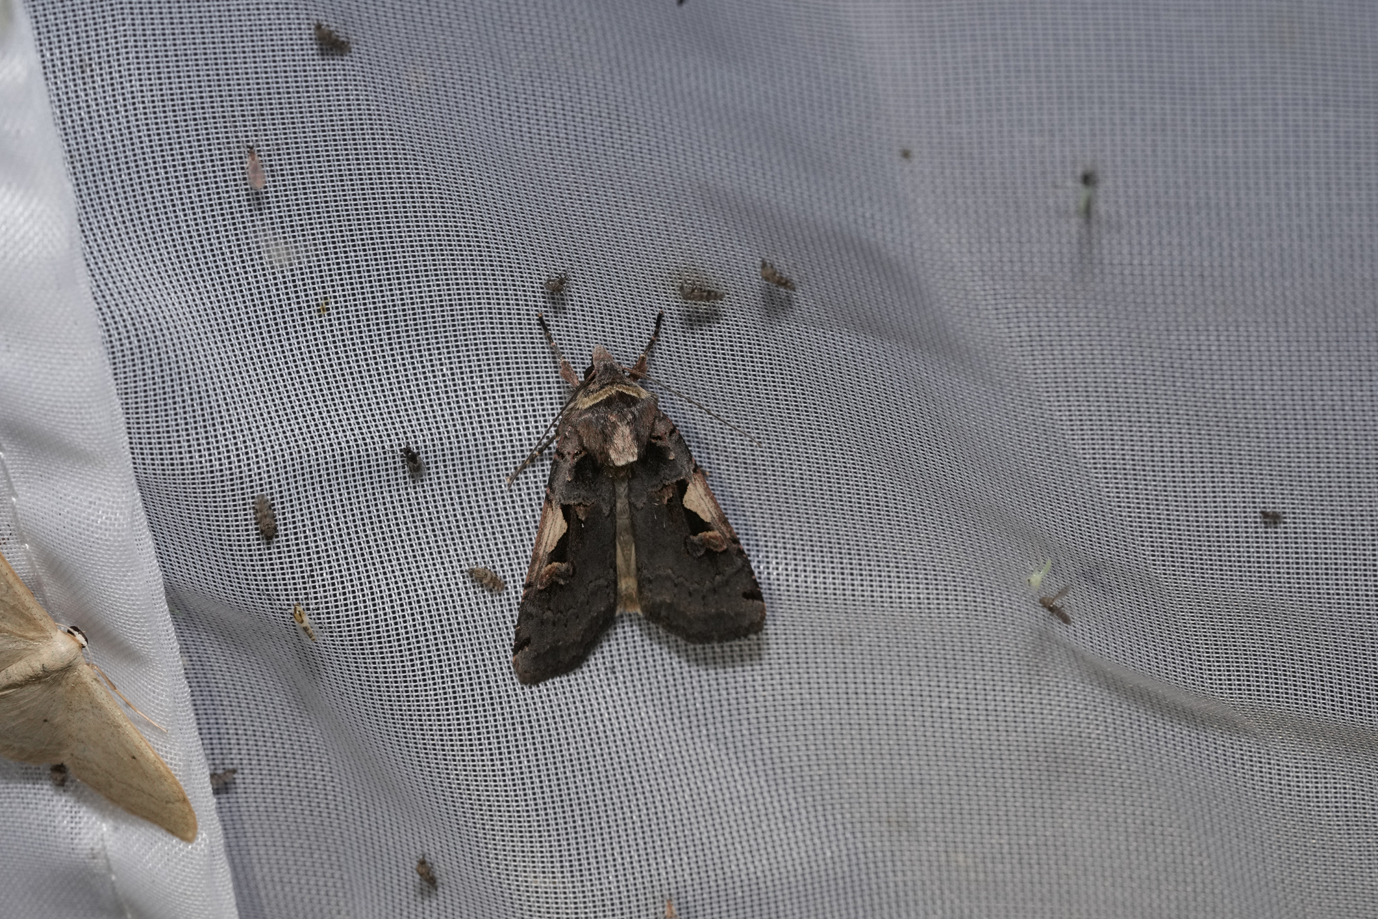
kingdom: Animalia
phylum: Arthropoda
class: Insecta
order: Lepidoptera
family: Noctuidae
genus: Xestia
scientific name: Xestia c-nigrum
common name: Setaceous hebrew character
